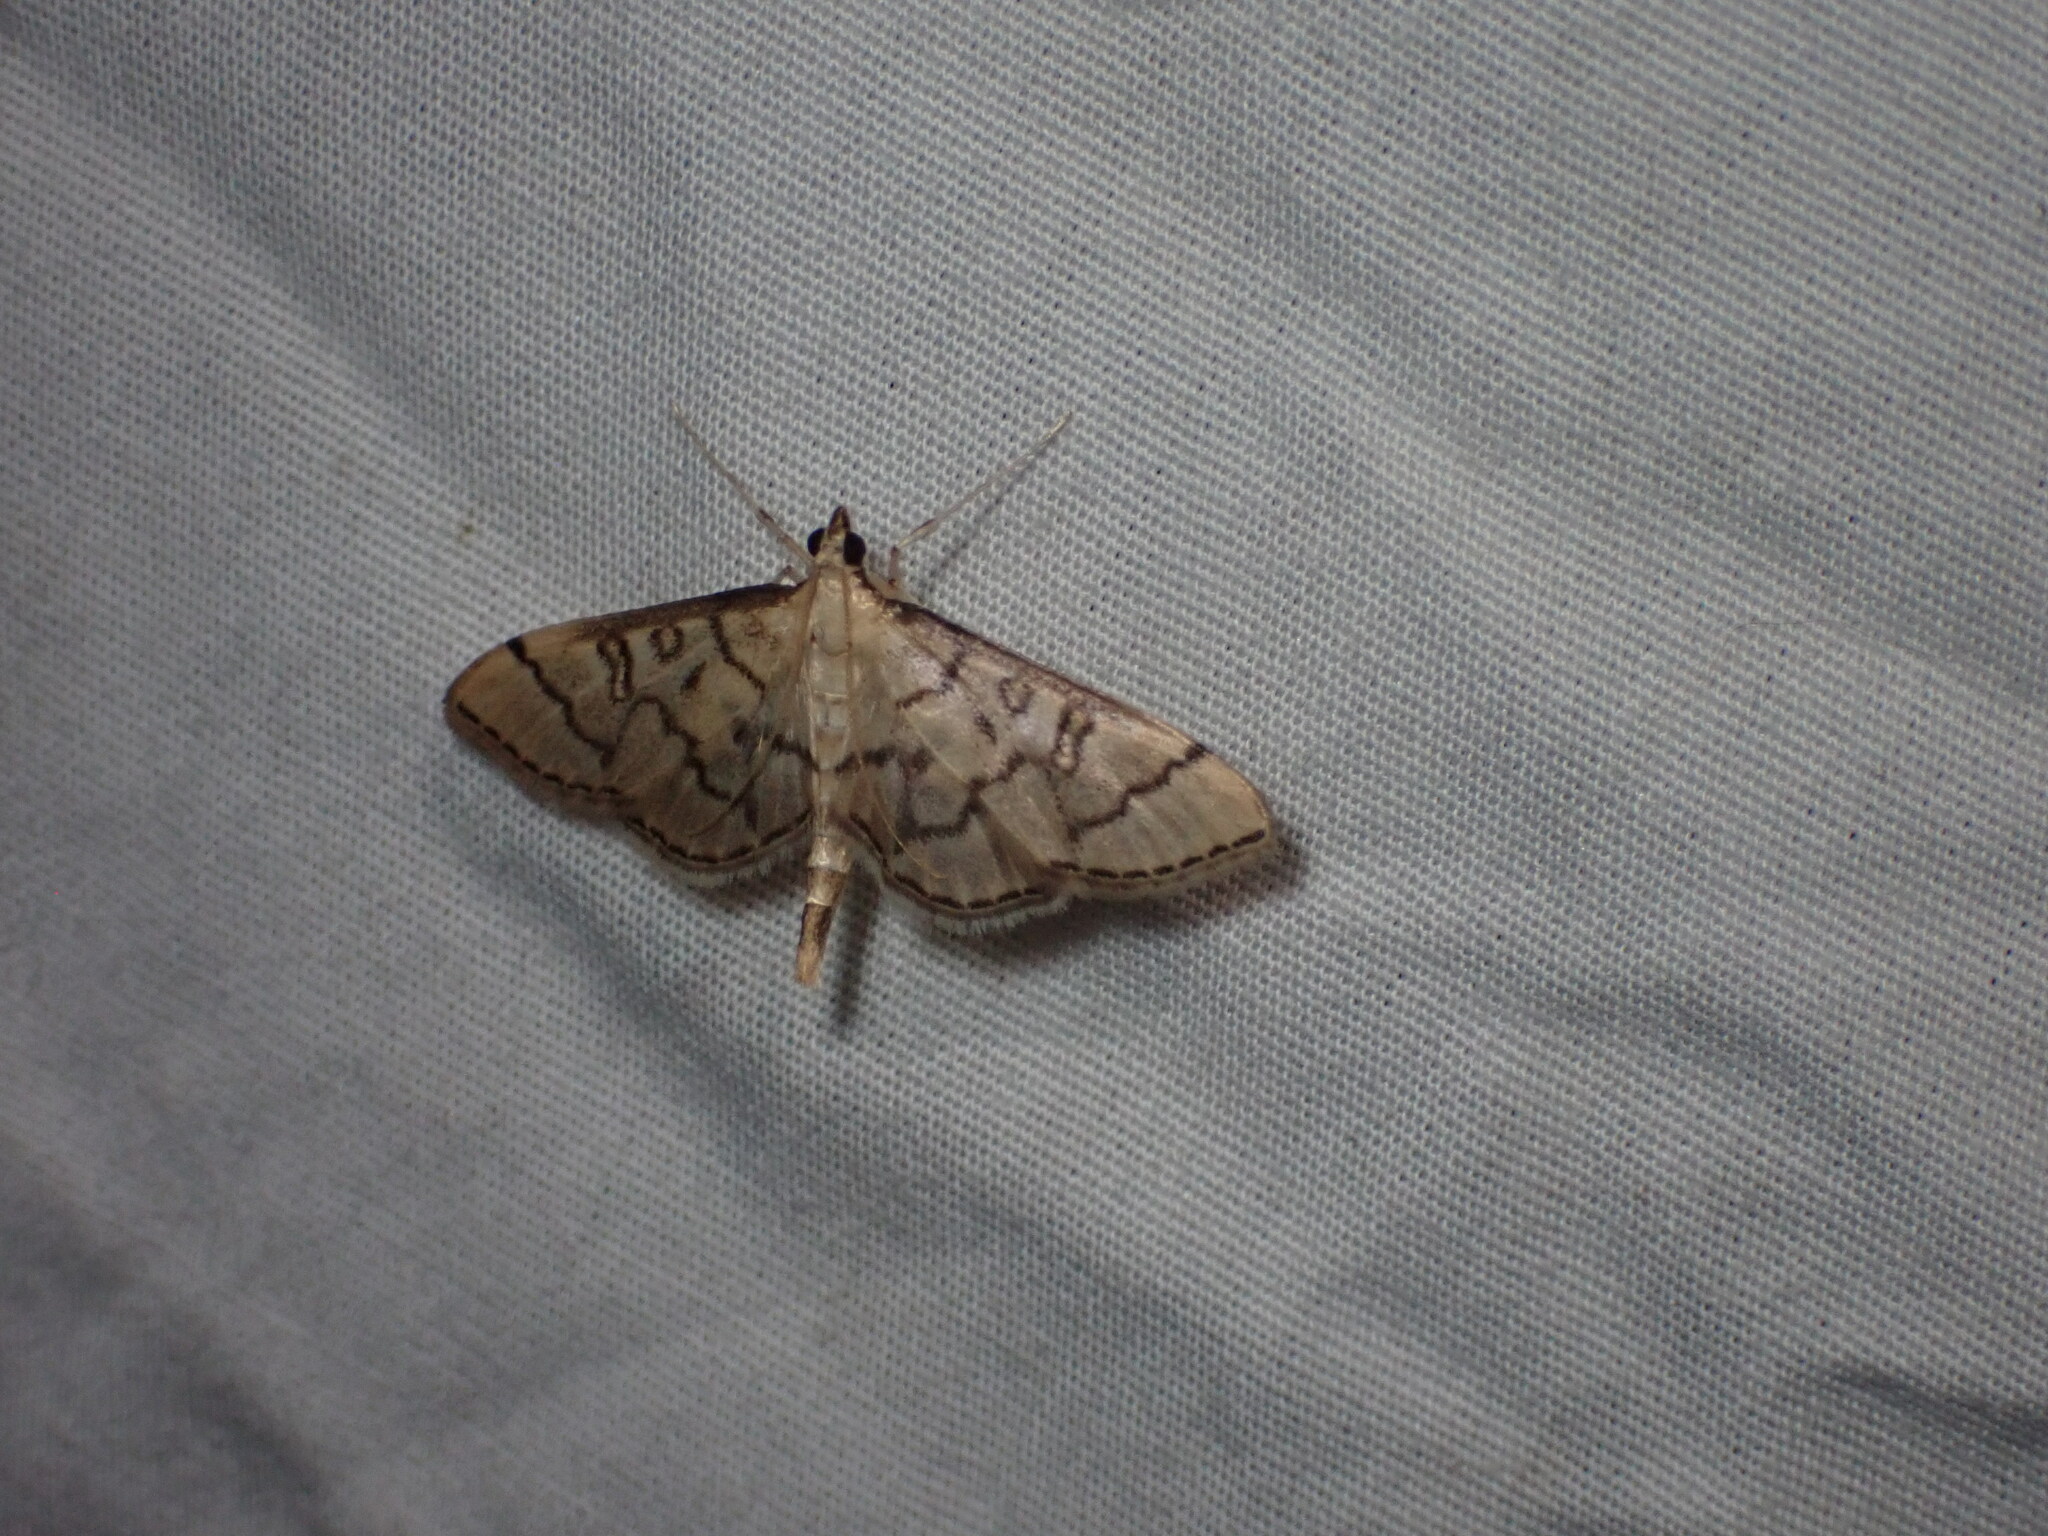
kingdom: Animalia
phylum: Arthropoda
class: Insecta
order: Lepidoptera
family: Crambidae
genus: Lamprosema
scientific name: Lamprosema Blepharomastix ranalis
